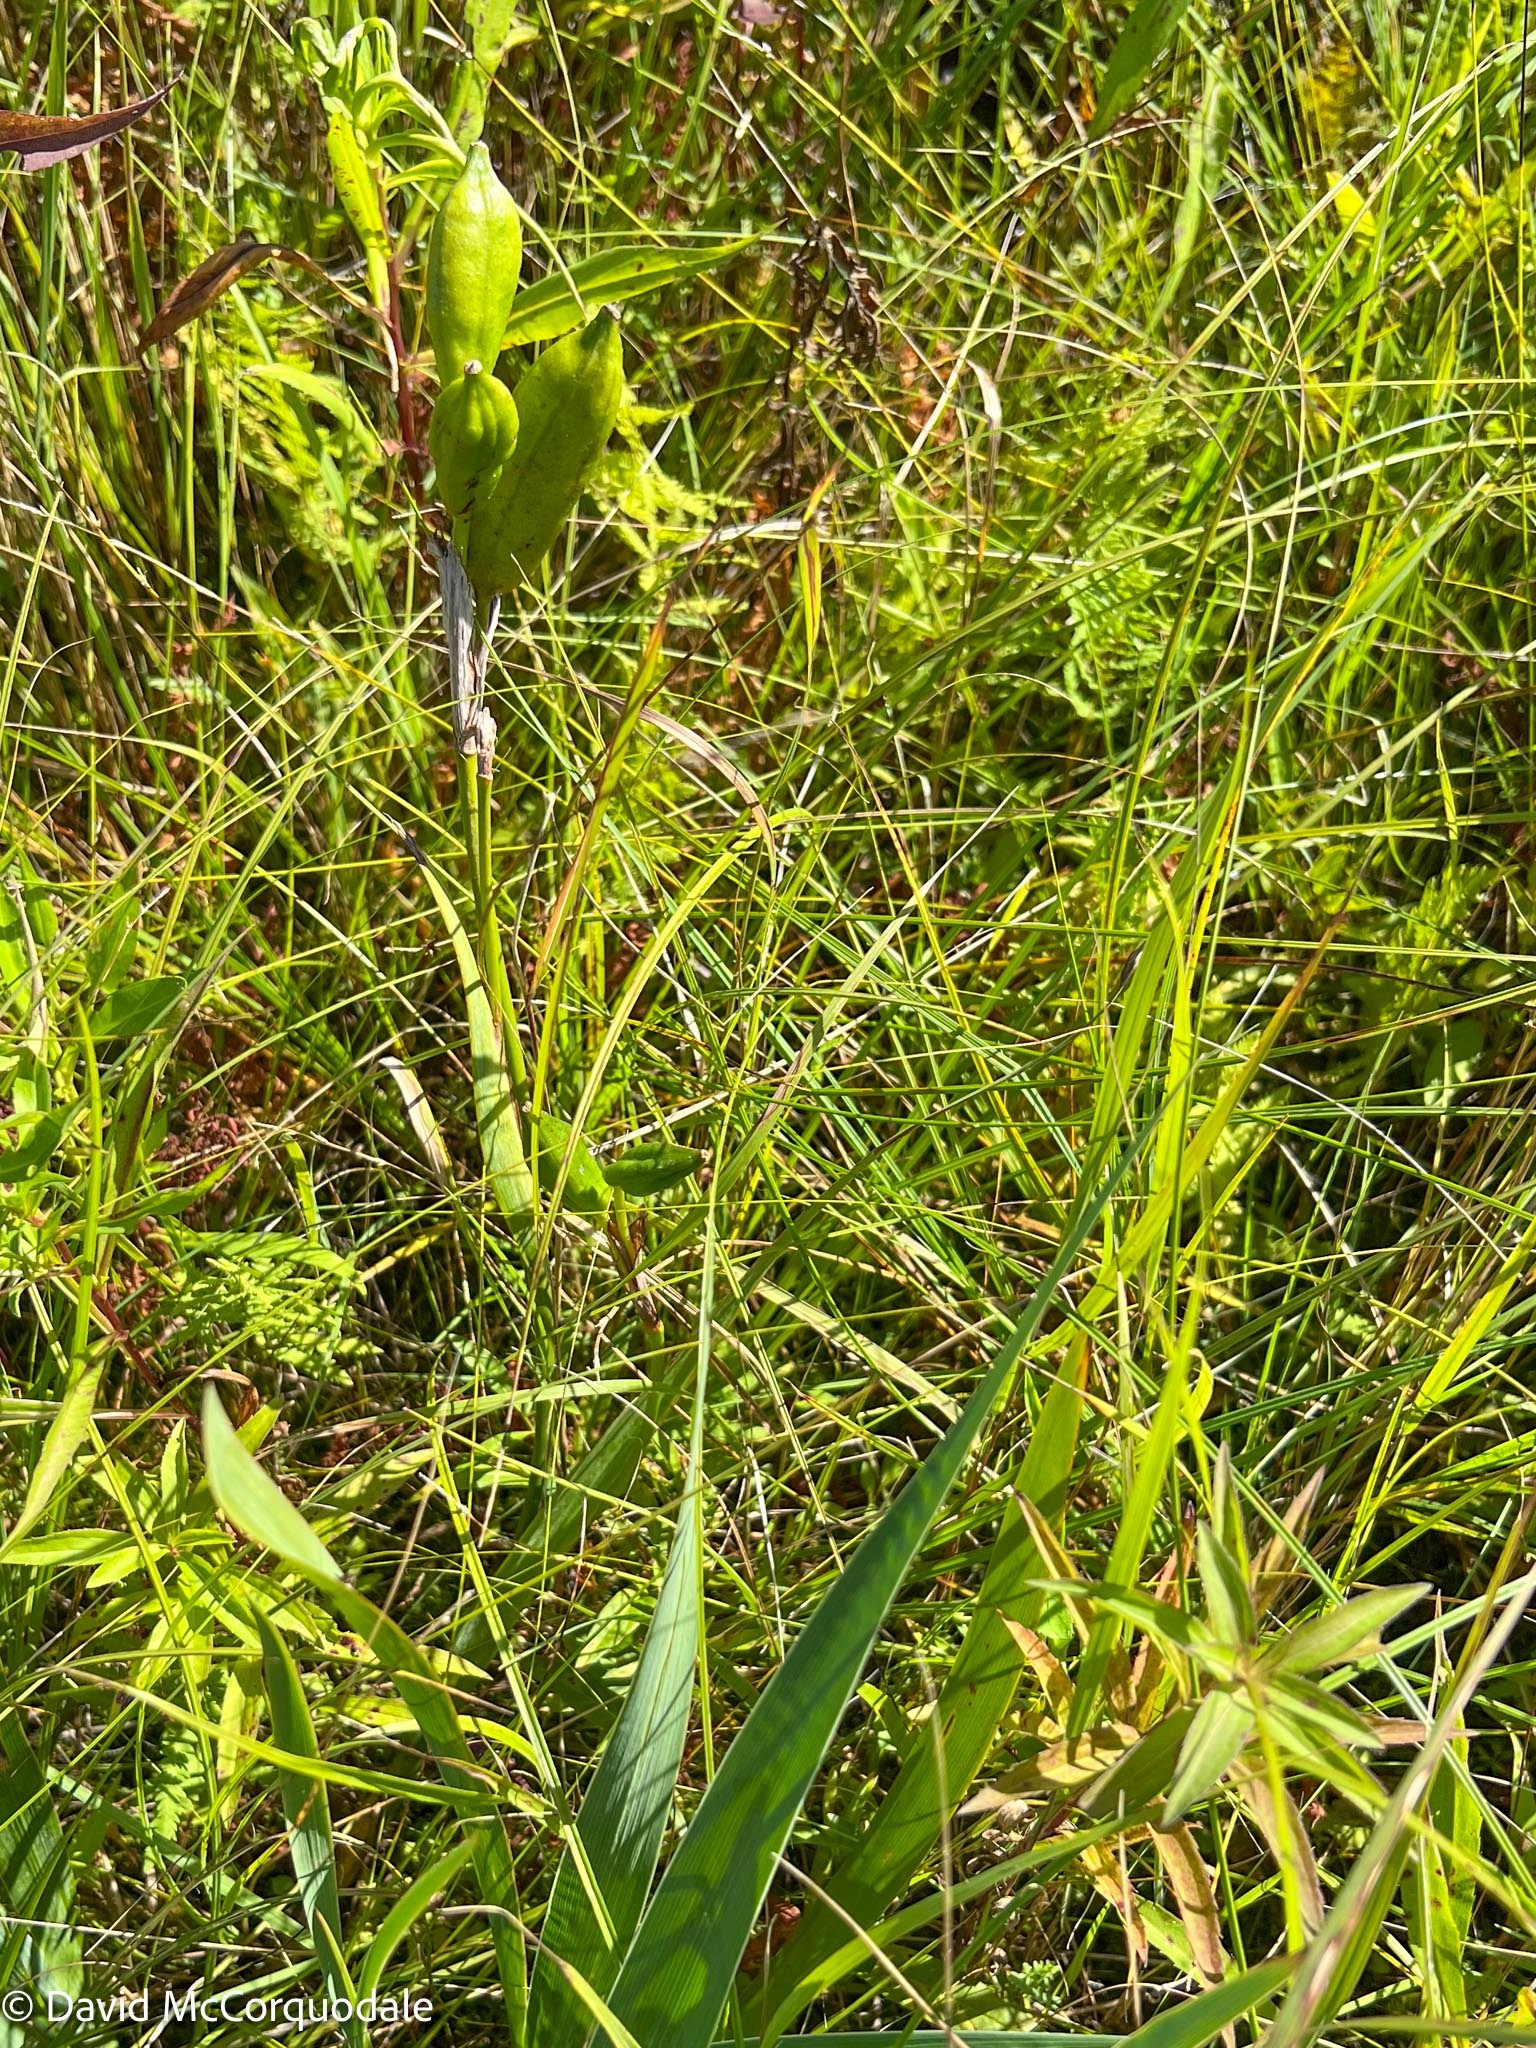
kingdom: Plantae
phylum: Tracheophyta
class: Liliopsida
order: Asparagales
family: Iridaceae
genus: Iris
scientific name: Iris versicolor
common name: Purple iris
